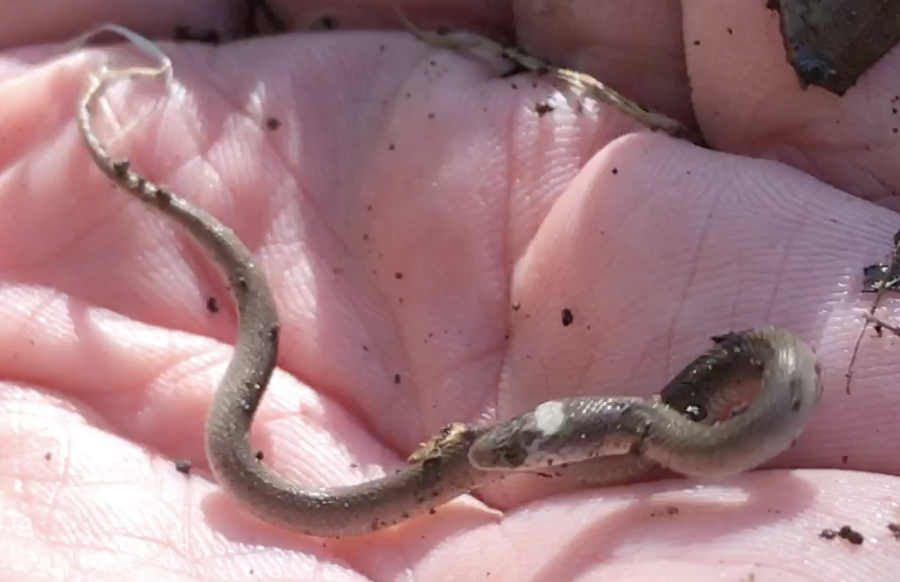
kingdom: Animalia
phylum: Chordata
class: Squamata
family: Colubridae
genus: Haldea
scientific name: Haldea striatula
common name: Rough earth snake
